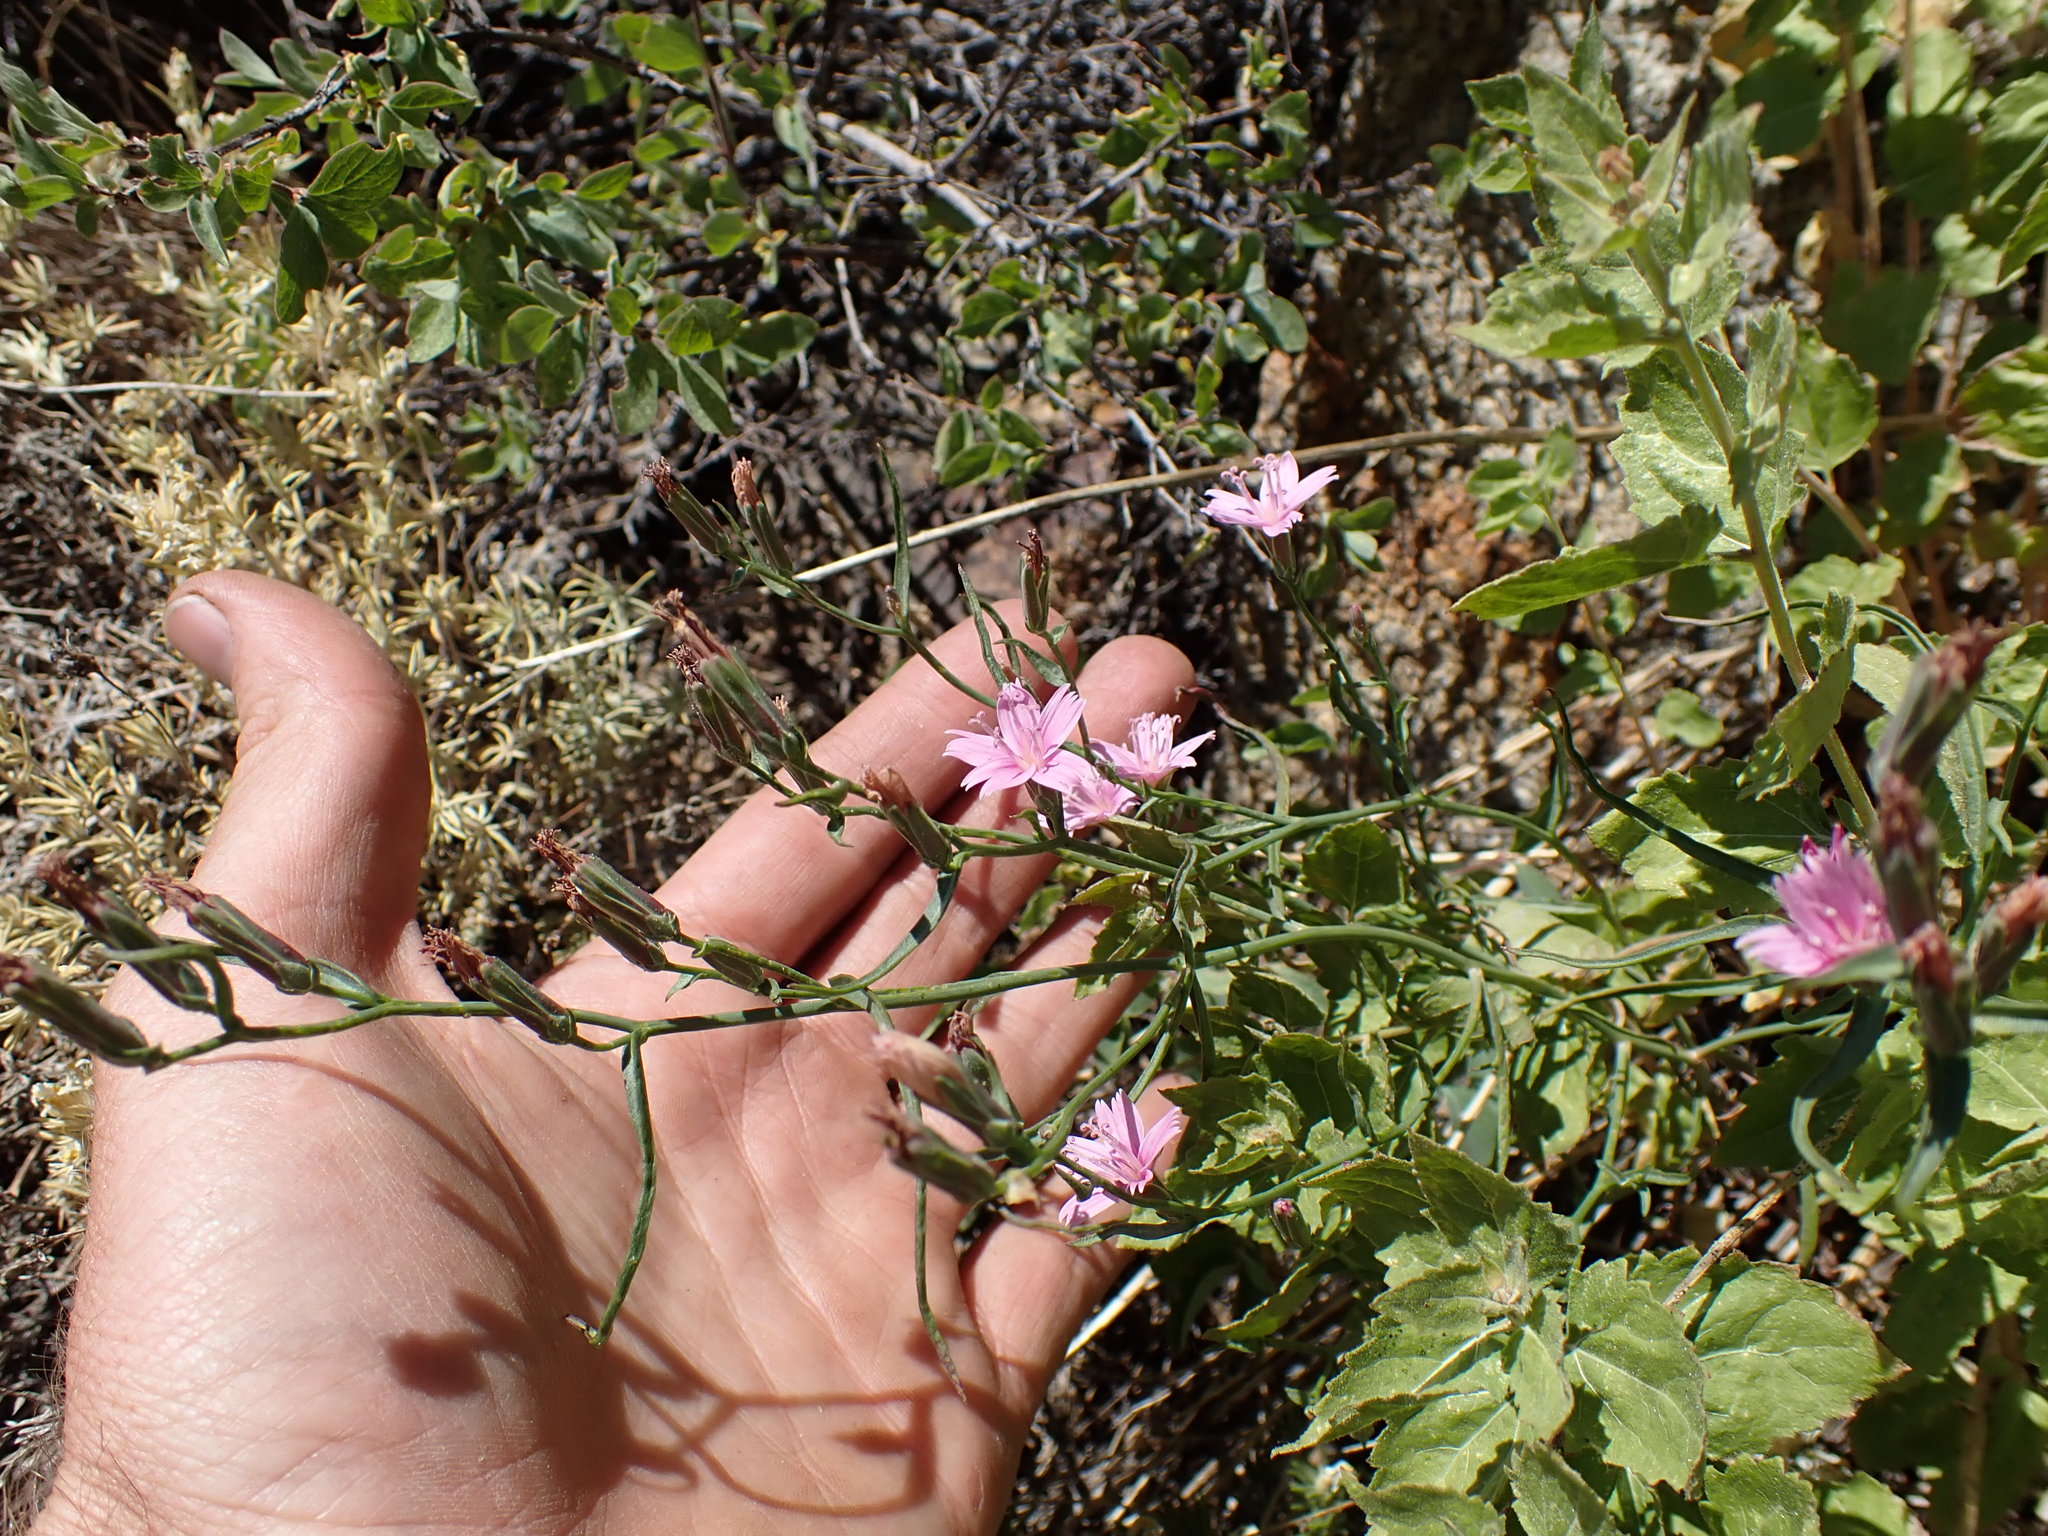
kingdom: Plantae
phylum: Tracheophyta
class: Magnoliopsida
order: Asterales
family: Asteraceae
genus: Stephanomeria
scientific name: Stephanomeria tenuifolia
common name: Slender wirelettuce
